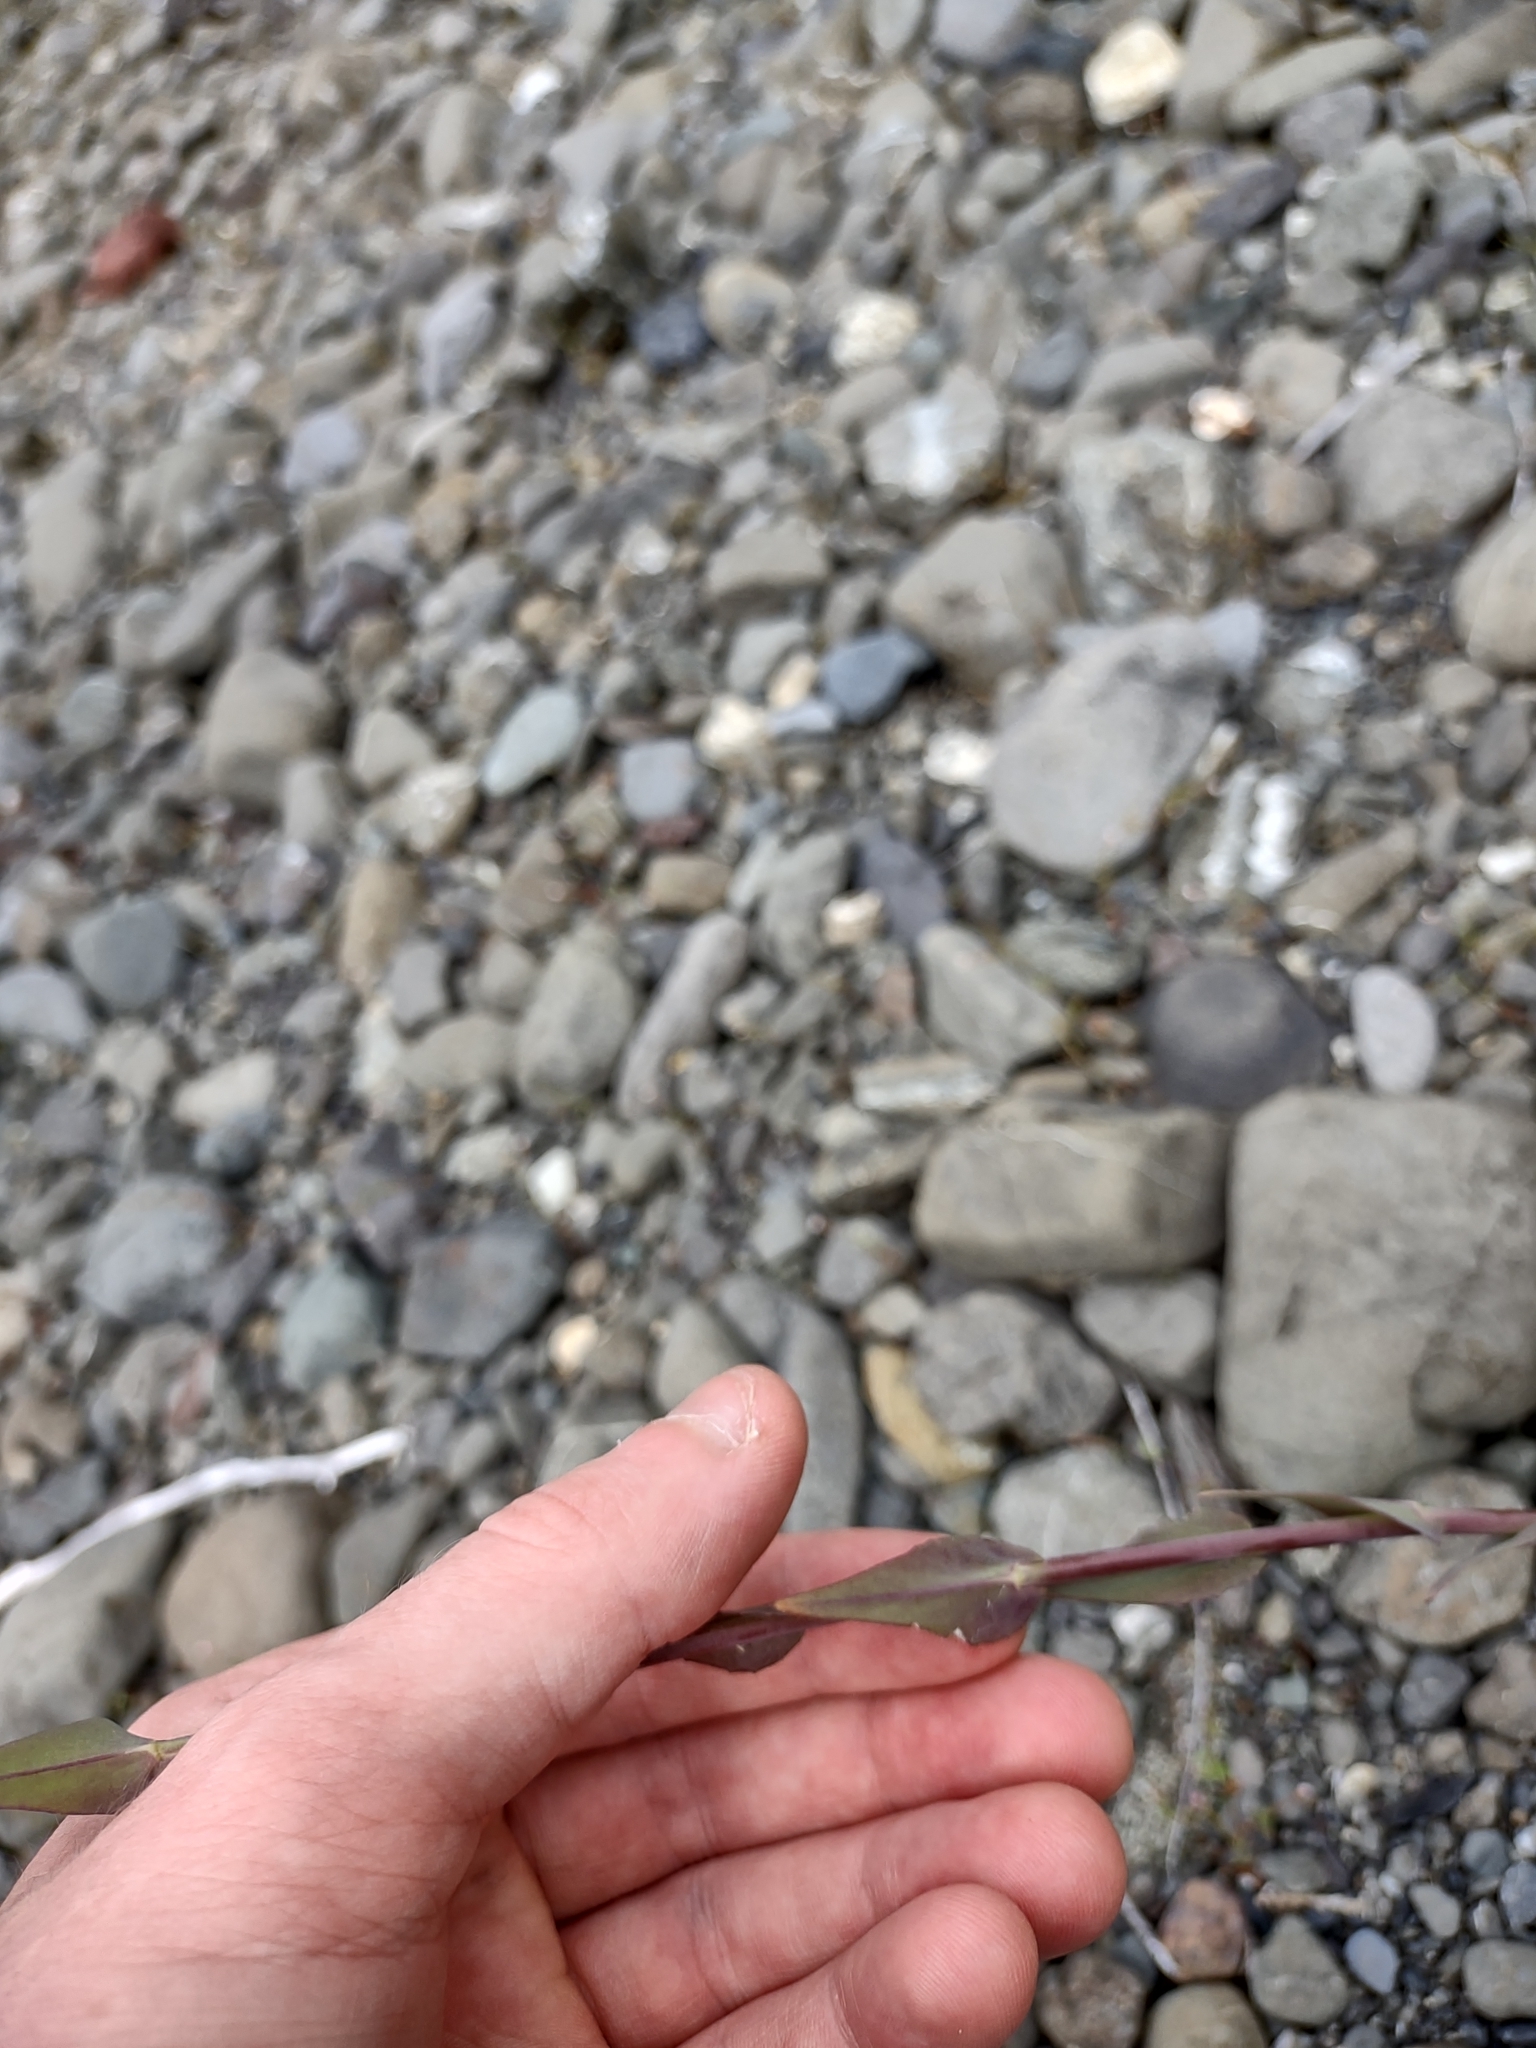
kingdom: Plantae
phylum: Tracheophyta
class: Magnoliopsida
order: Brassicales
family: Brassicaceae
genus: Turritis
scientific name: Turritis glabra
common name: Tower rockcress
